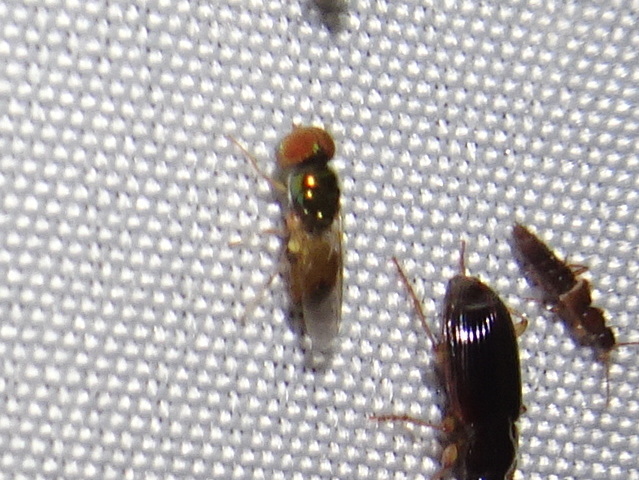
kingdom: Animalia
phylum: Arthropoda
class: Insecta
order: Diptera
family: Stratiomyidae
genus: Microchrysa
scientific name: Microchrysa flaviventris
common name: Soldier fly
